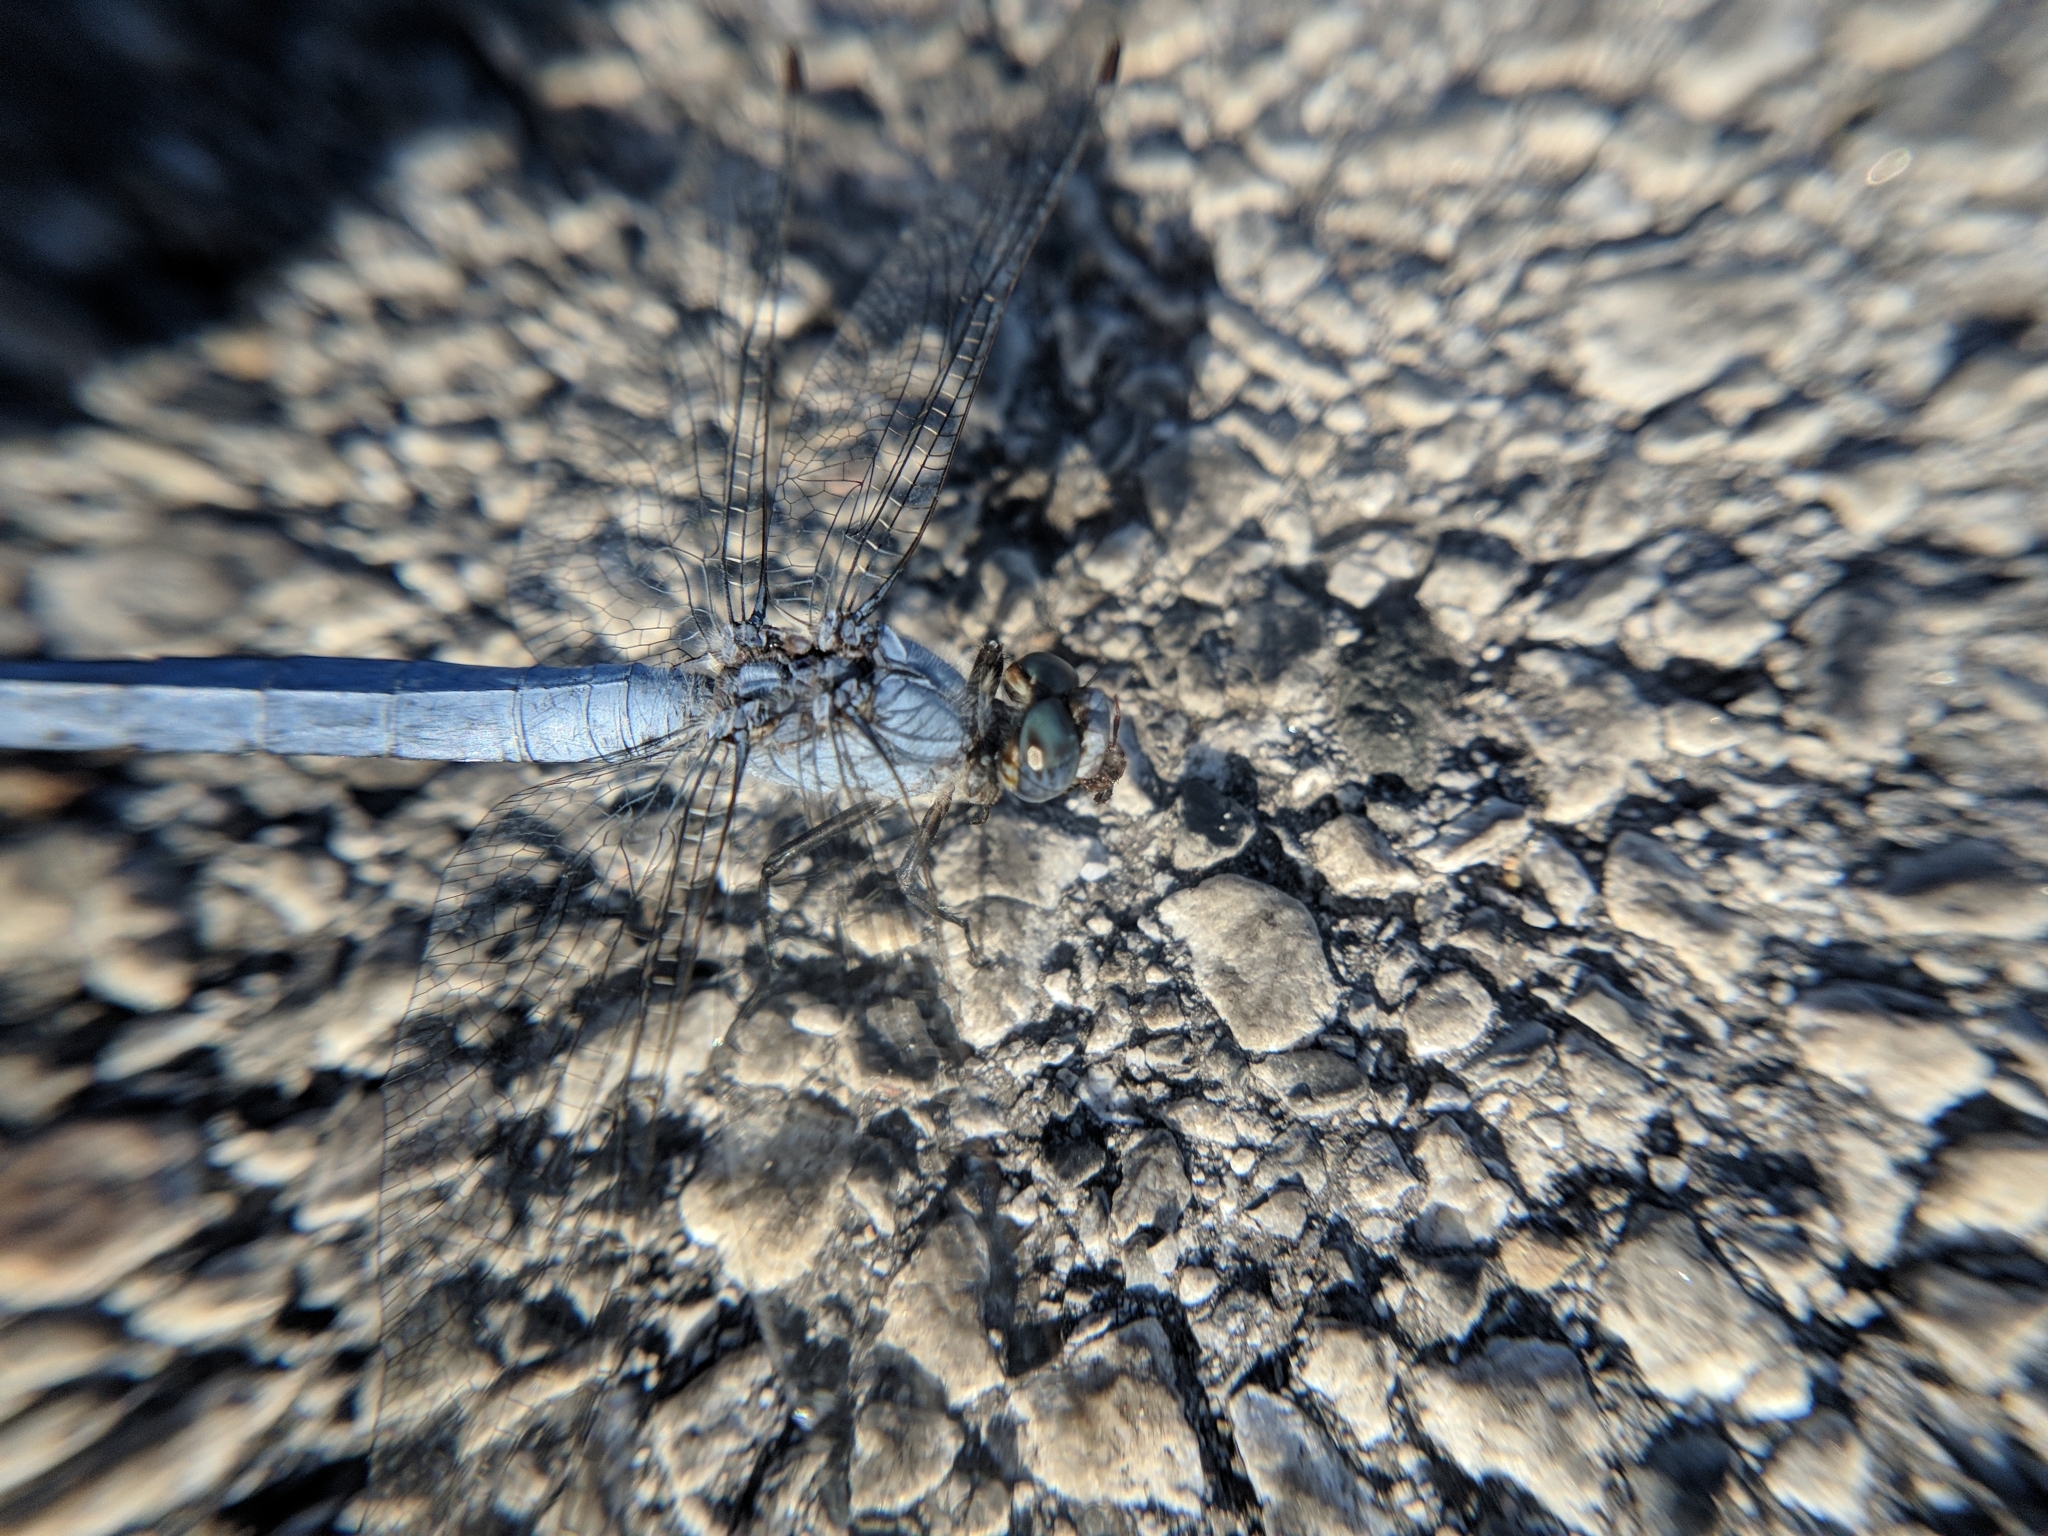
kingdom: Animalia
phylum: Arthropoda
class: Insecta
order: Odonata
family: Libellulidae
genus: Orthetrum
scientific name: Orthetrum brunneum
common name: Southern skimmer
